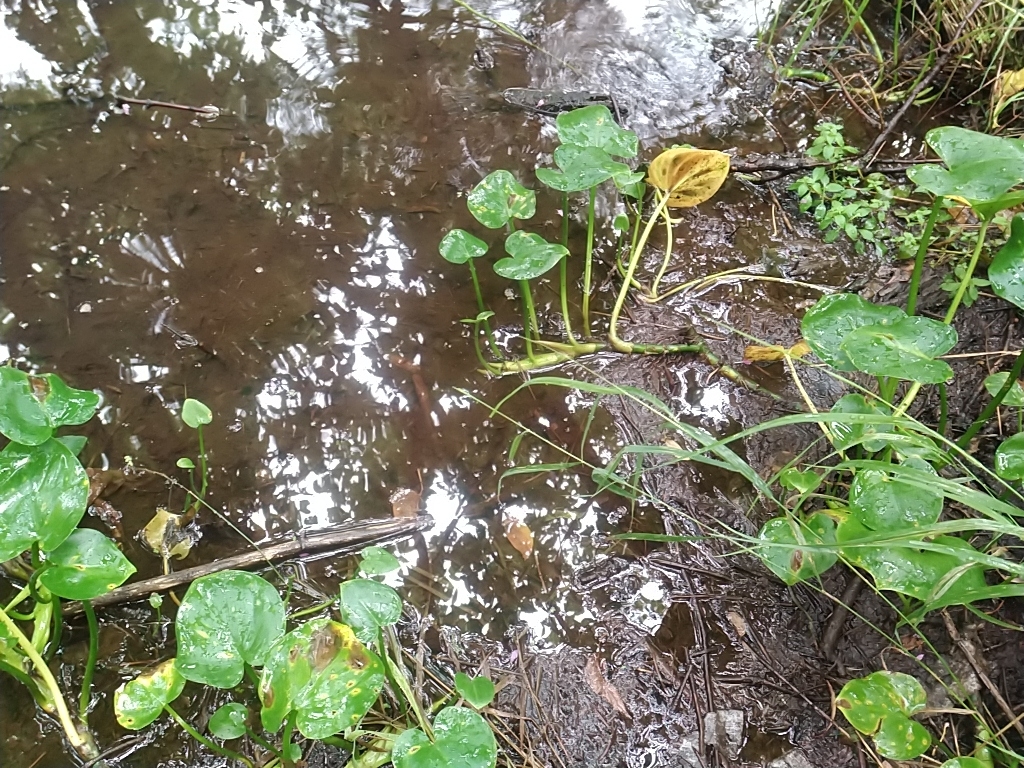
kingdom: Plantae
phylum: Tracheophyta
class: Liliopsida
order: Alismatales
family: Araceae
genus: Calla
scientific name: Calla palustris
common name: Bog arum
